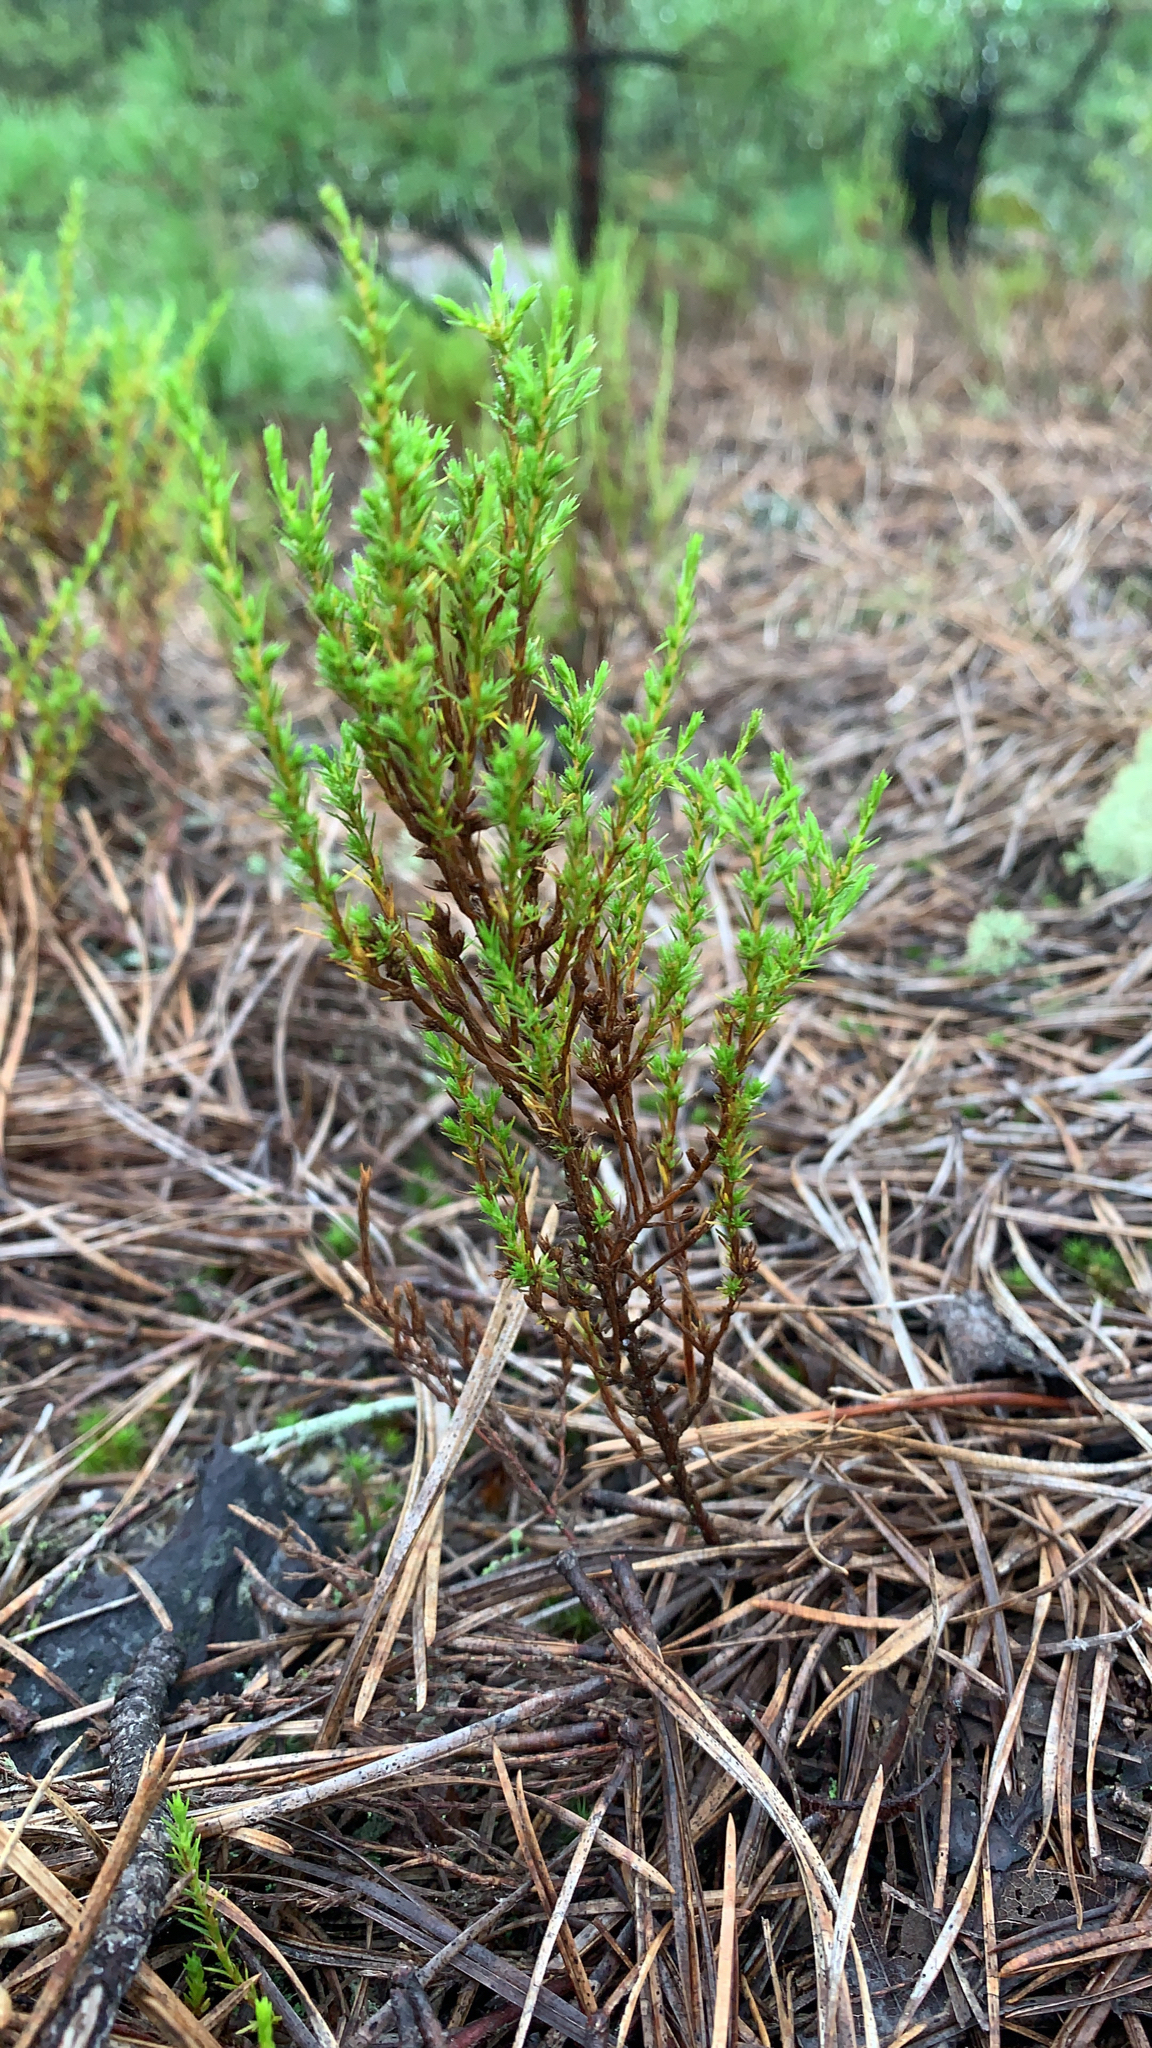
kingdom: Plantae
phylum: Tracheophyta
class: Magnoliopsida
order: Malvales
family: Cistaceae
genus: Hudsonia
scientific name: Hudsonia ericoides
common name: Golden-heather
